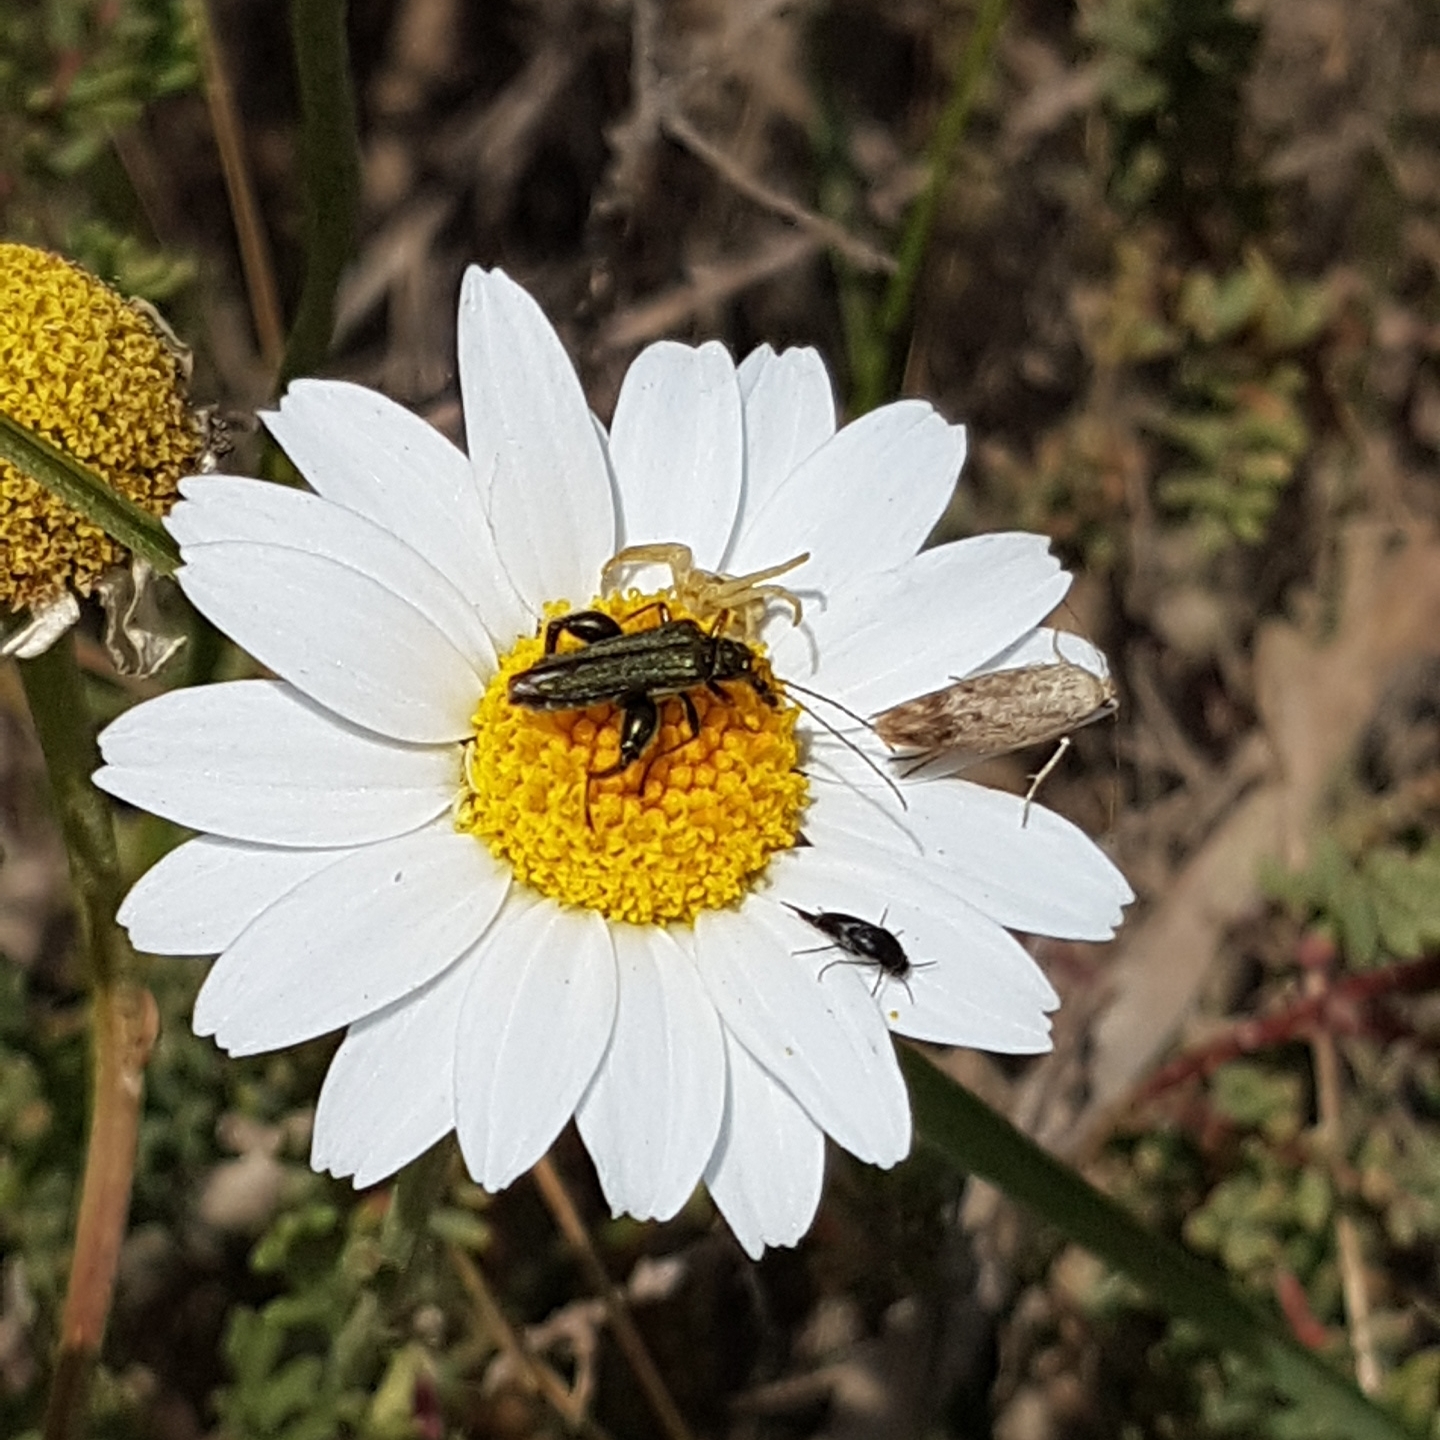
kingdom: Animalia
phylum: Arthropoda
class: Arachnida
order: Araneae
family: Thomisidae
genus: Runcinia
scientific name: Runcinia grammica
